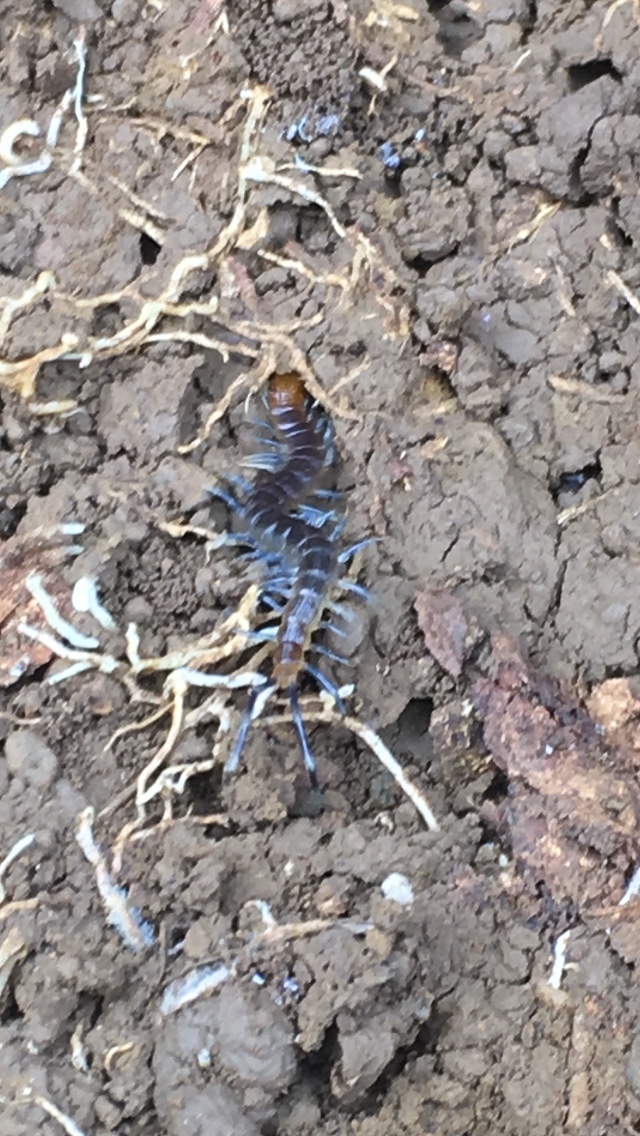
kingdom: Animalia
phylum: Arthropoda
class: Chilopoda
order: Scolopendromorpha
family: Scolopendridae
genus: Otostigmus
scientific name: Otostigmus scaber
